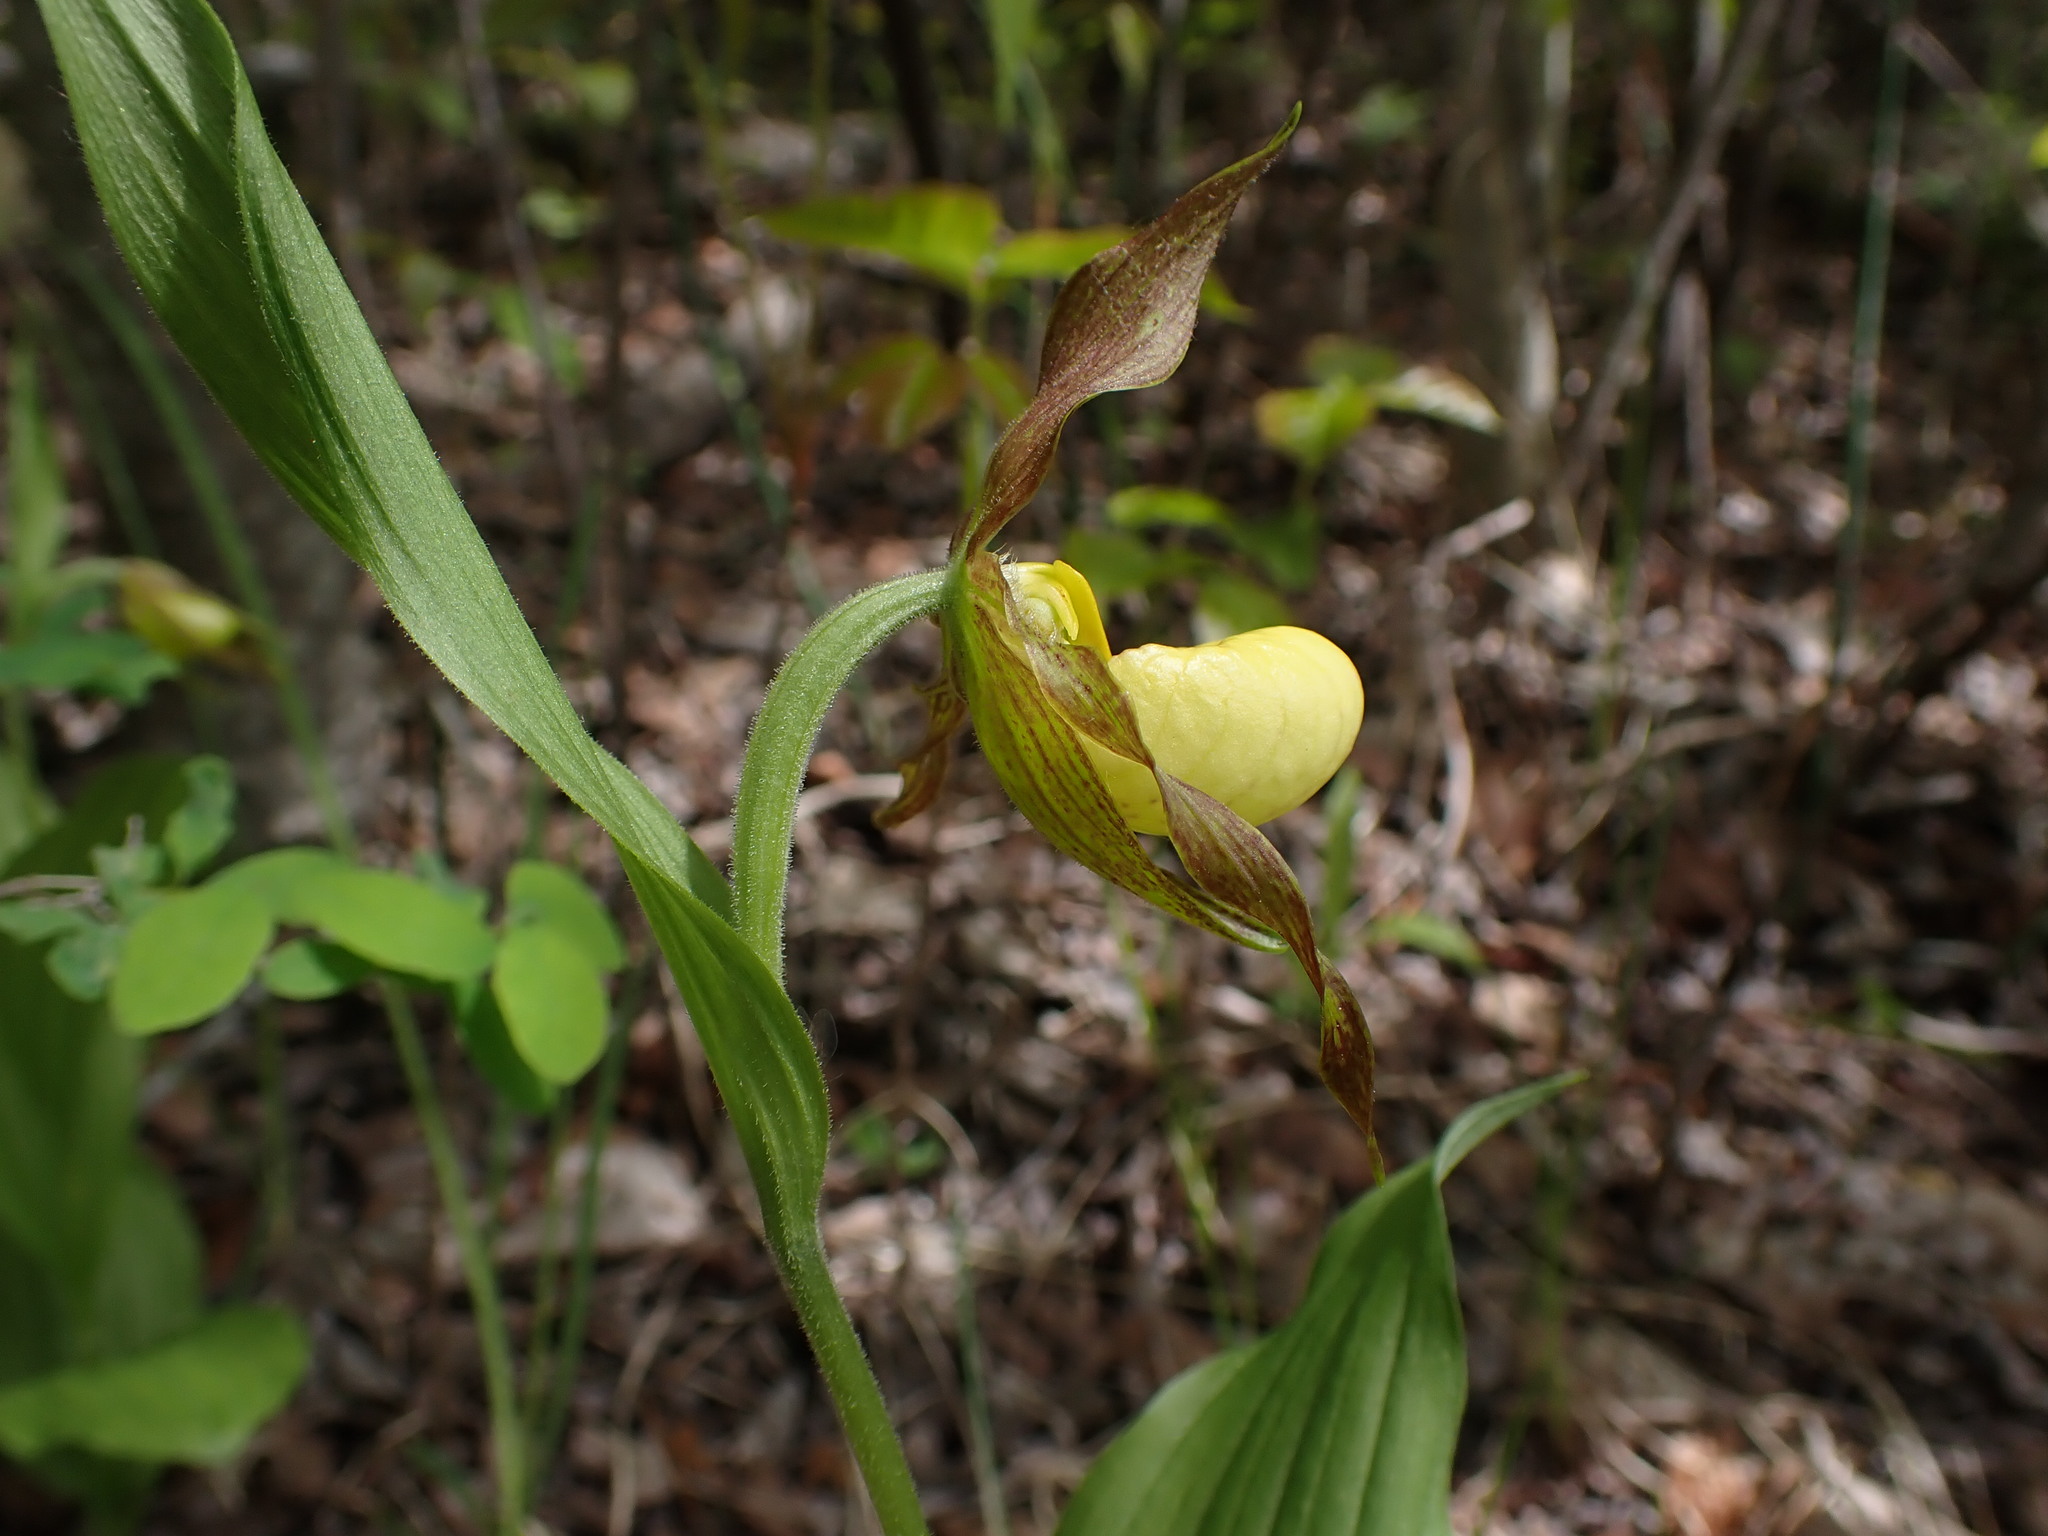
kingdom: Plantae
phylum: Tracheophyta
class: Liliopsida
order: Asparagales
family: Orchidaceae
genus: Cypripedium
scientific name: Cypripedium parviflorum
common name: American yellow lady's-slipper
